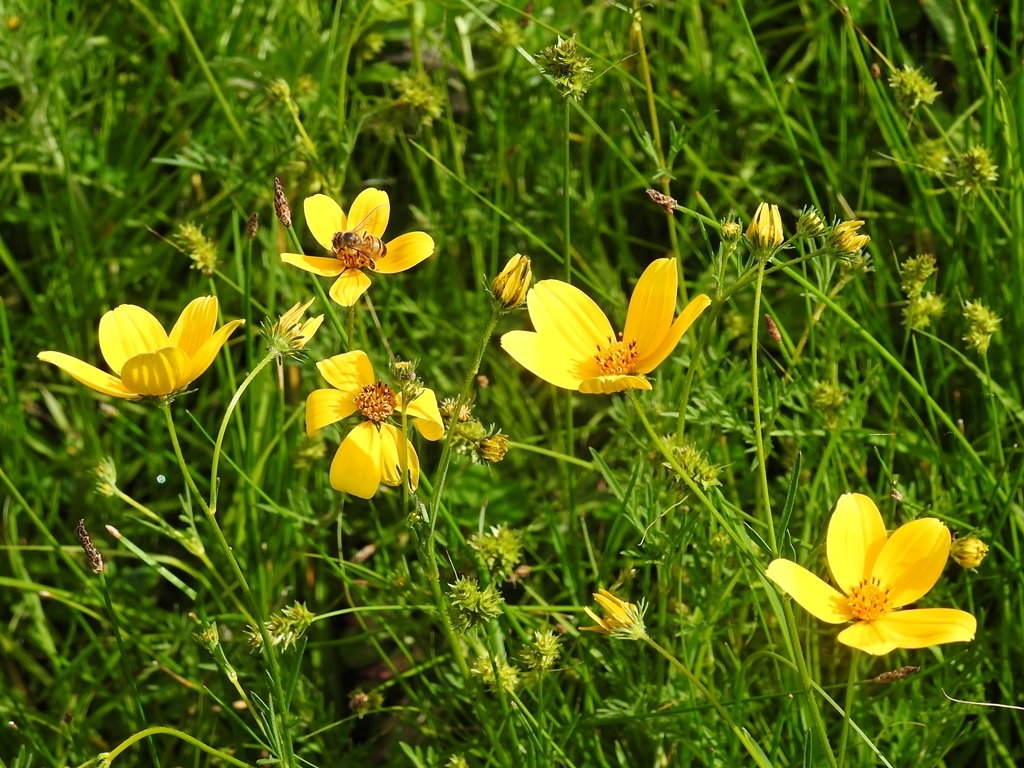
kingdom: Plantae
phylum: Tracheophyta
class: Magnoliopsida
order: Asterales
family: Asteraceae
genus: Bidens
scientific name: Bidens triplinervia
